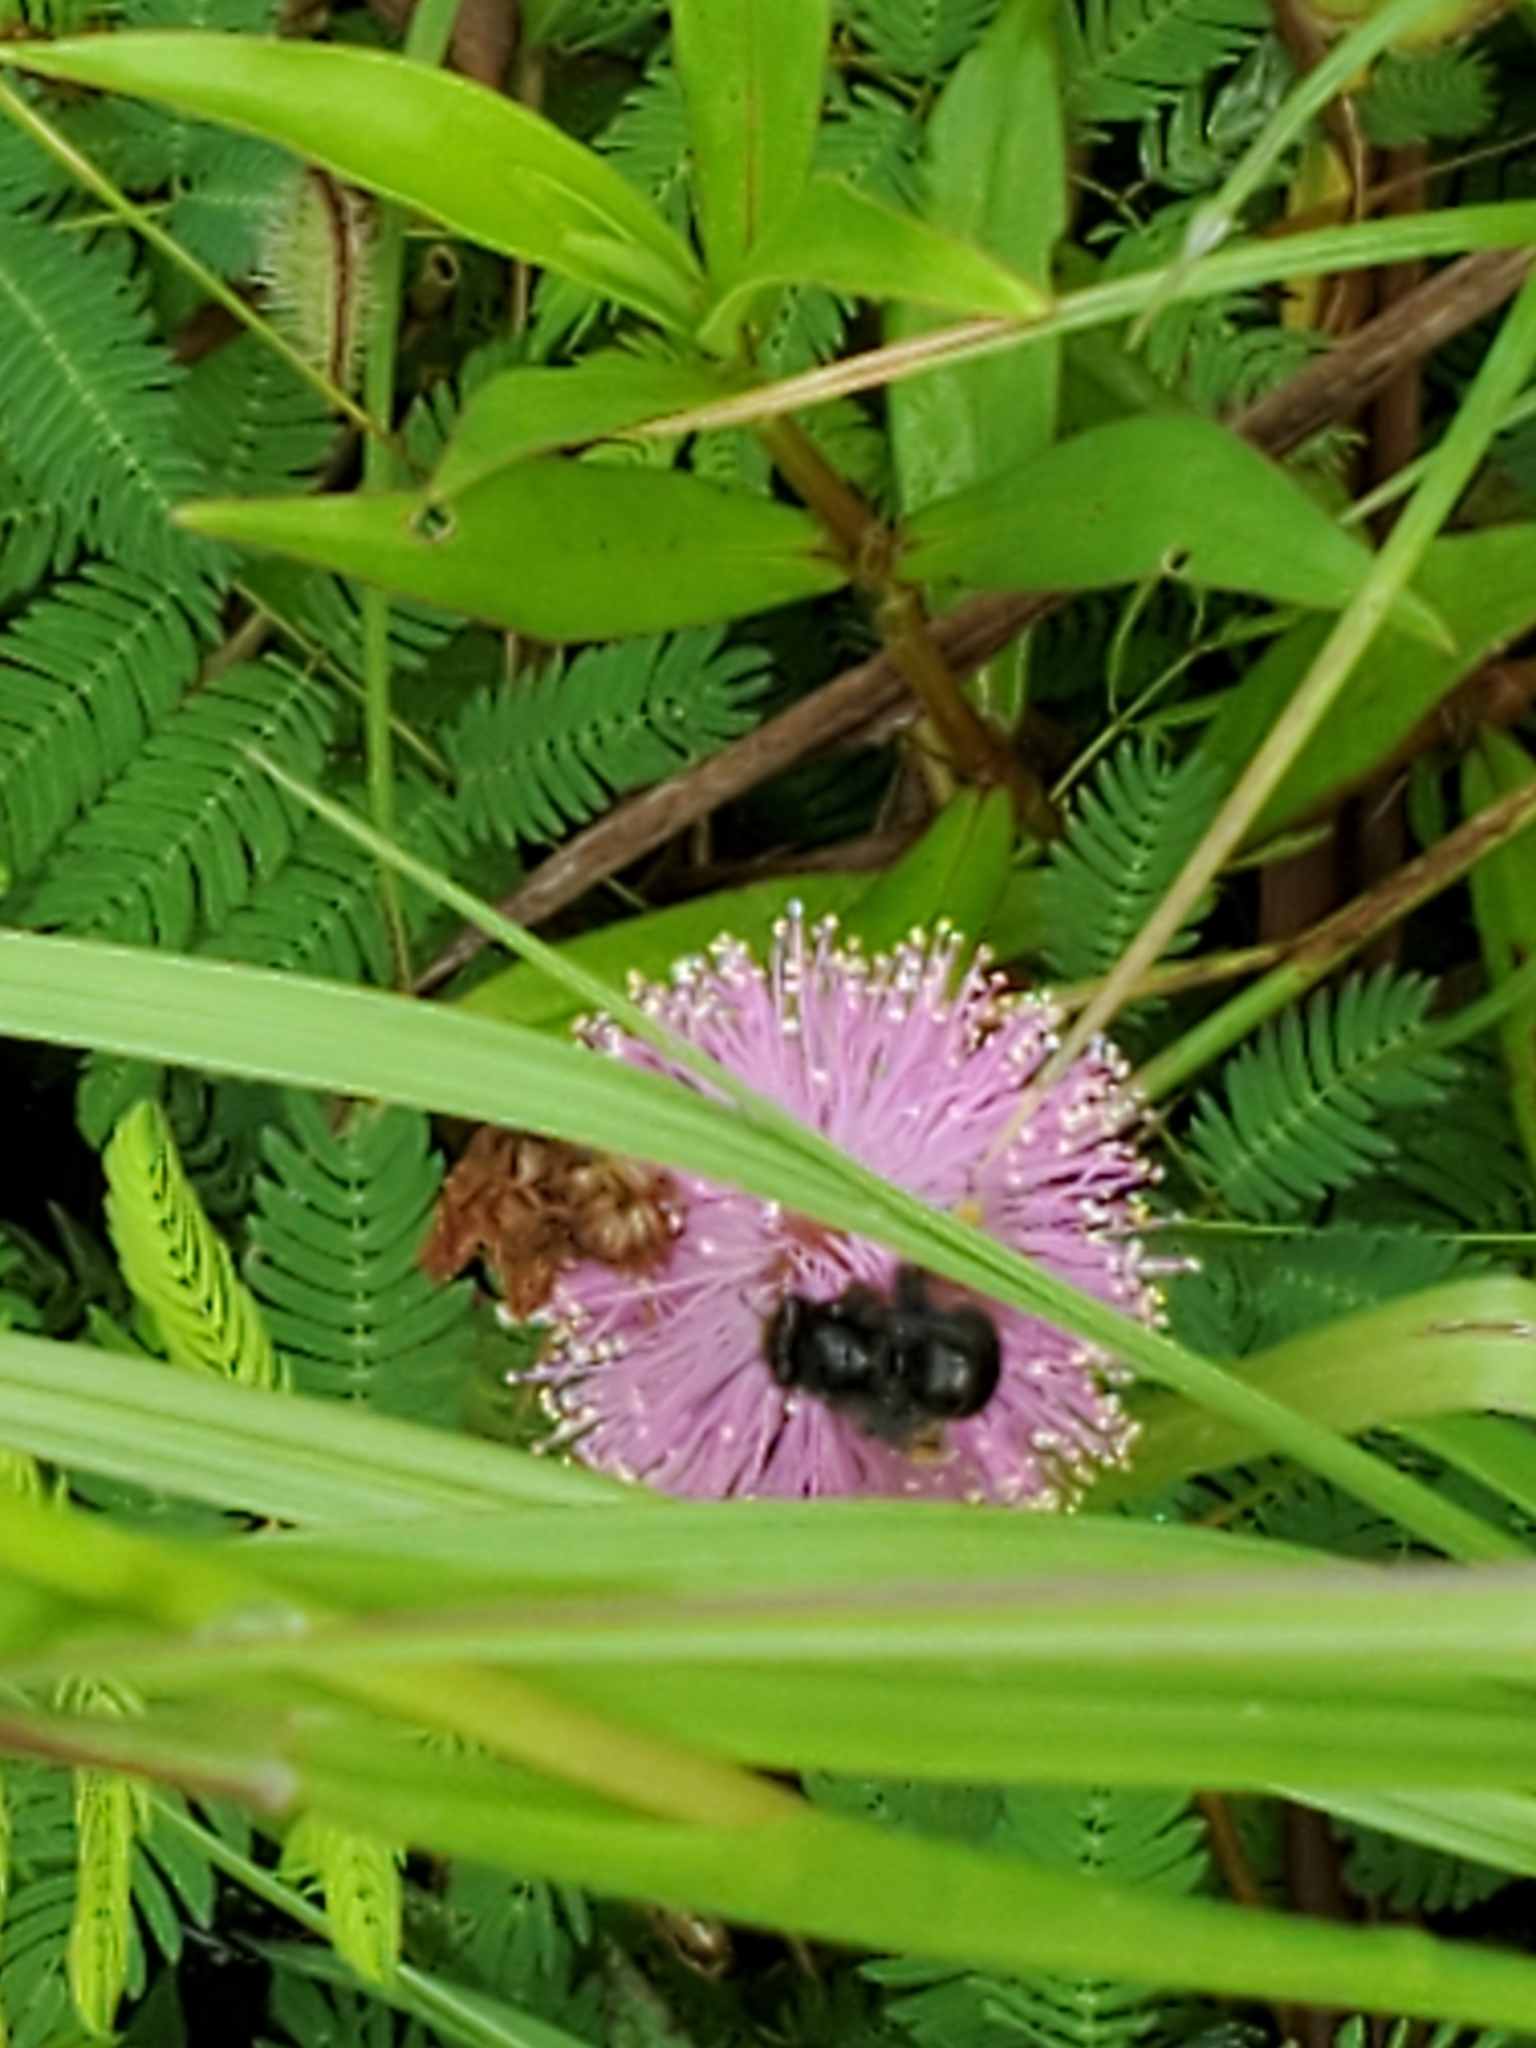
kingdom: Animalia
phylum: Arthropoda
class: Insecta
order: Hymenoptera
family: Apidae
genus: Melissodes
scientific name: Melissodes bimaculatus
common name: Two-spotted long-horned bee
